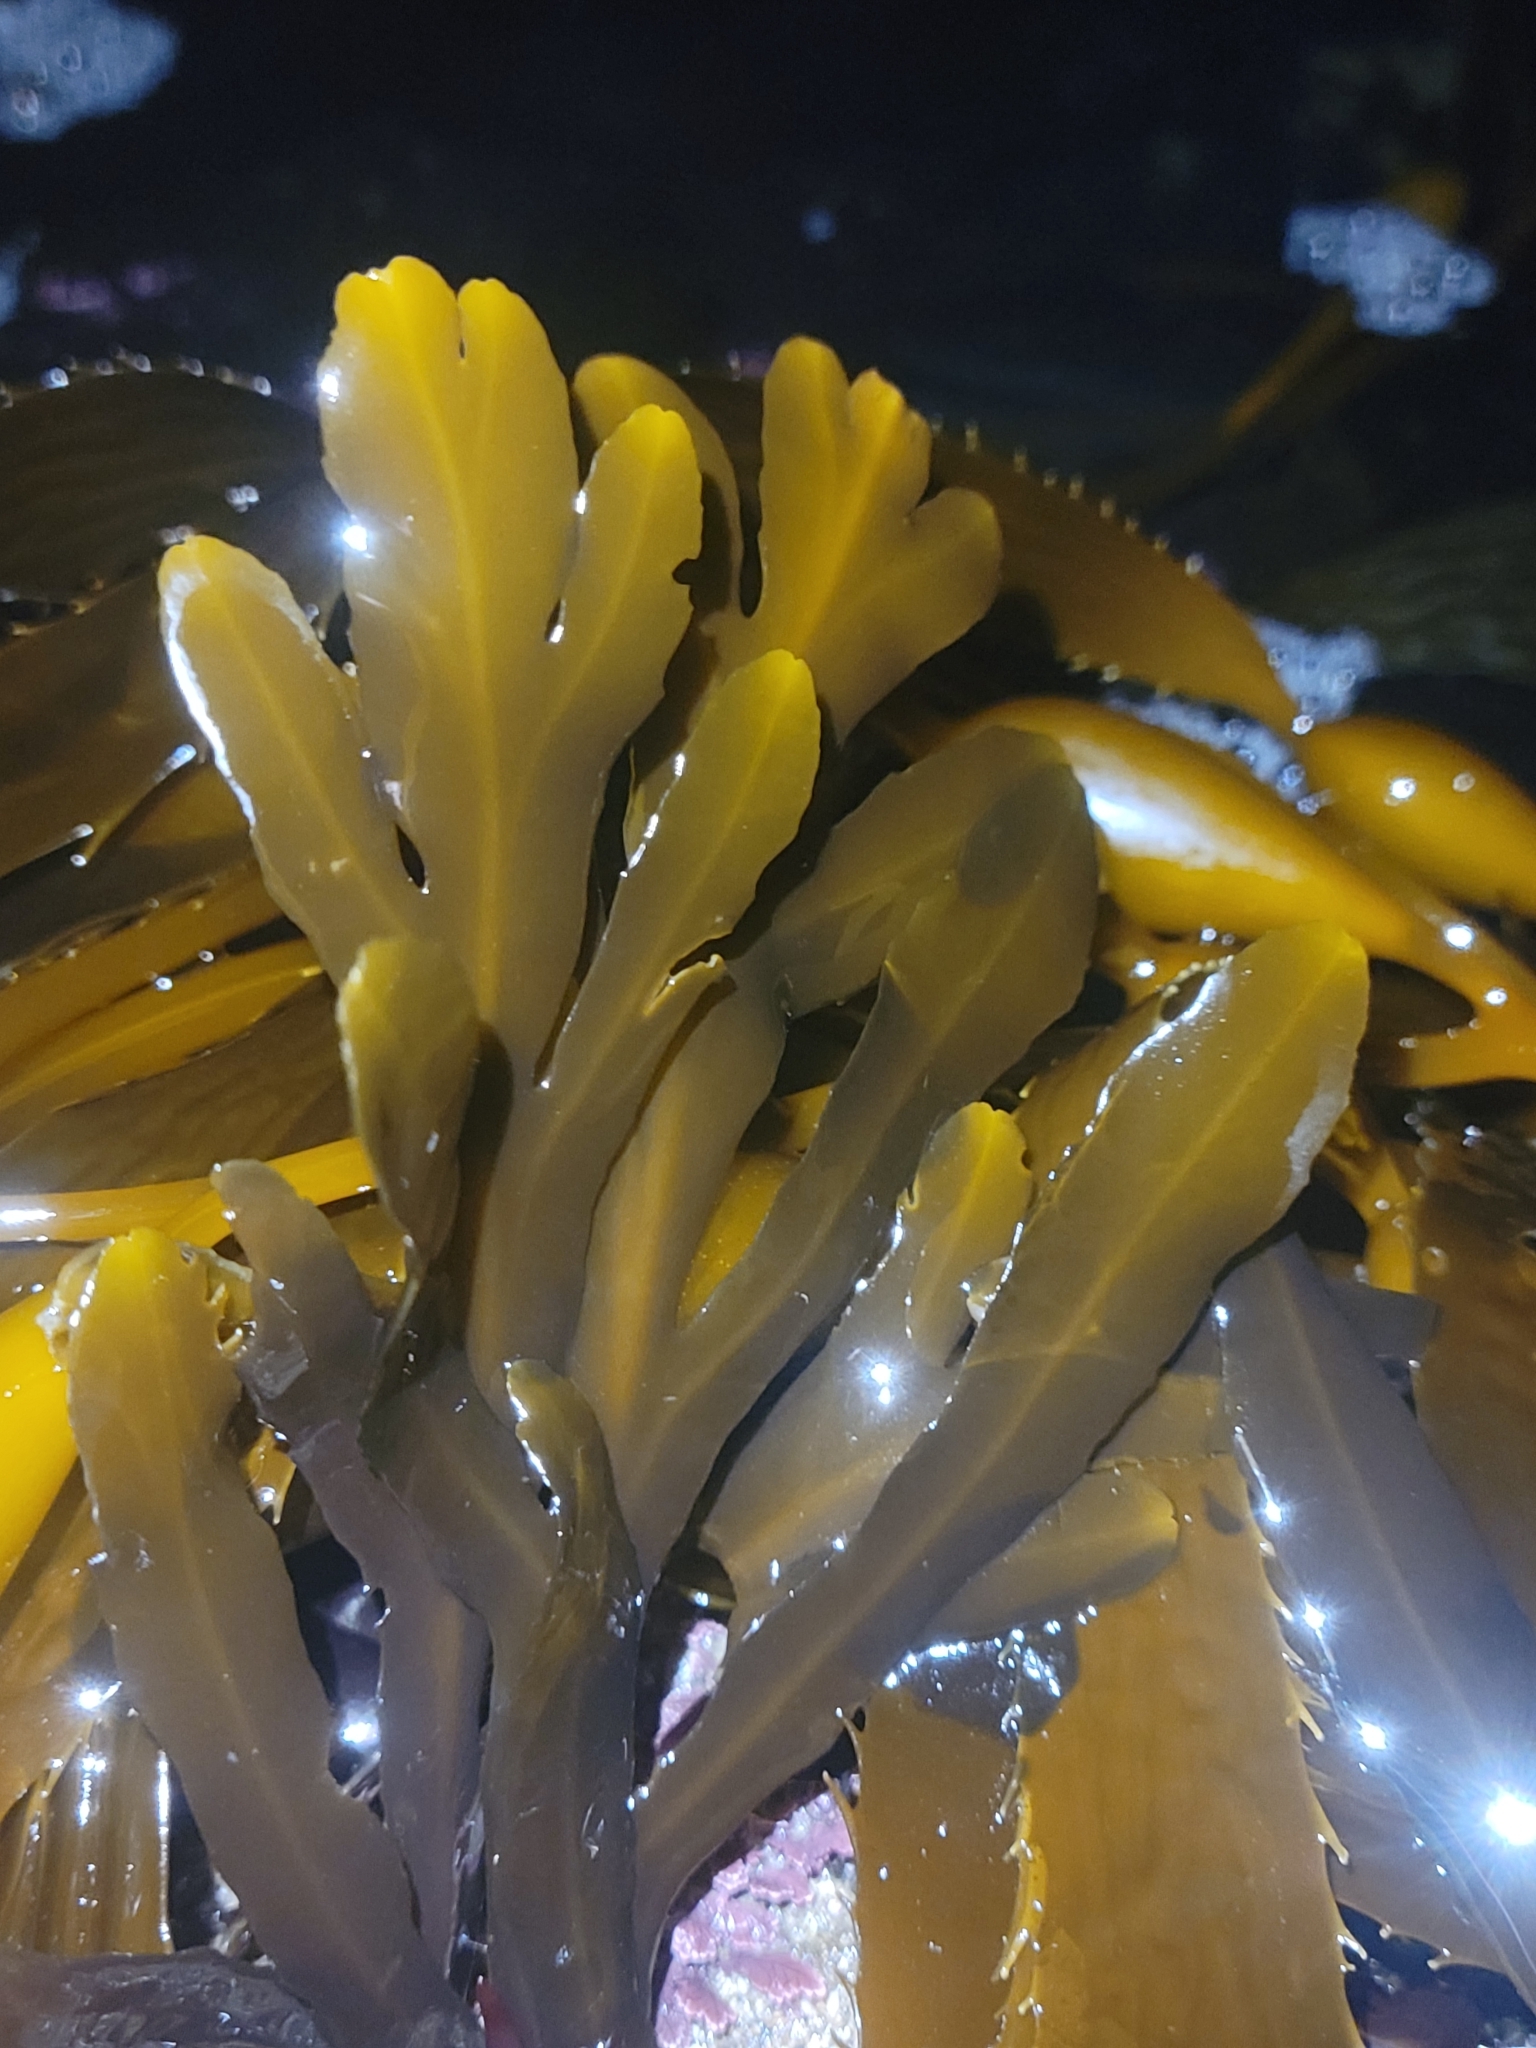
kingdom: Chromista
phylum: Ochrophyta
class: Phaeophyceae
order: Fucales
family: Sargassaceae
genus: Stephanocystis
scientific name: Stephanocystis
